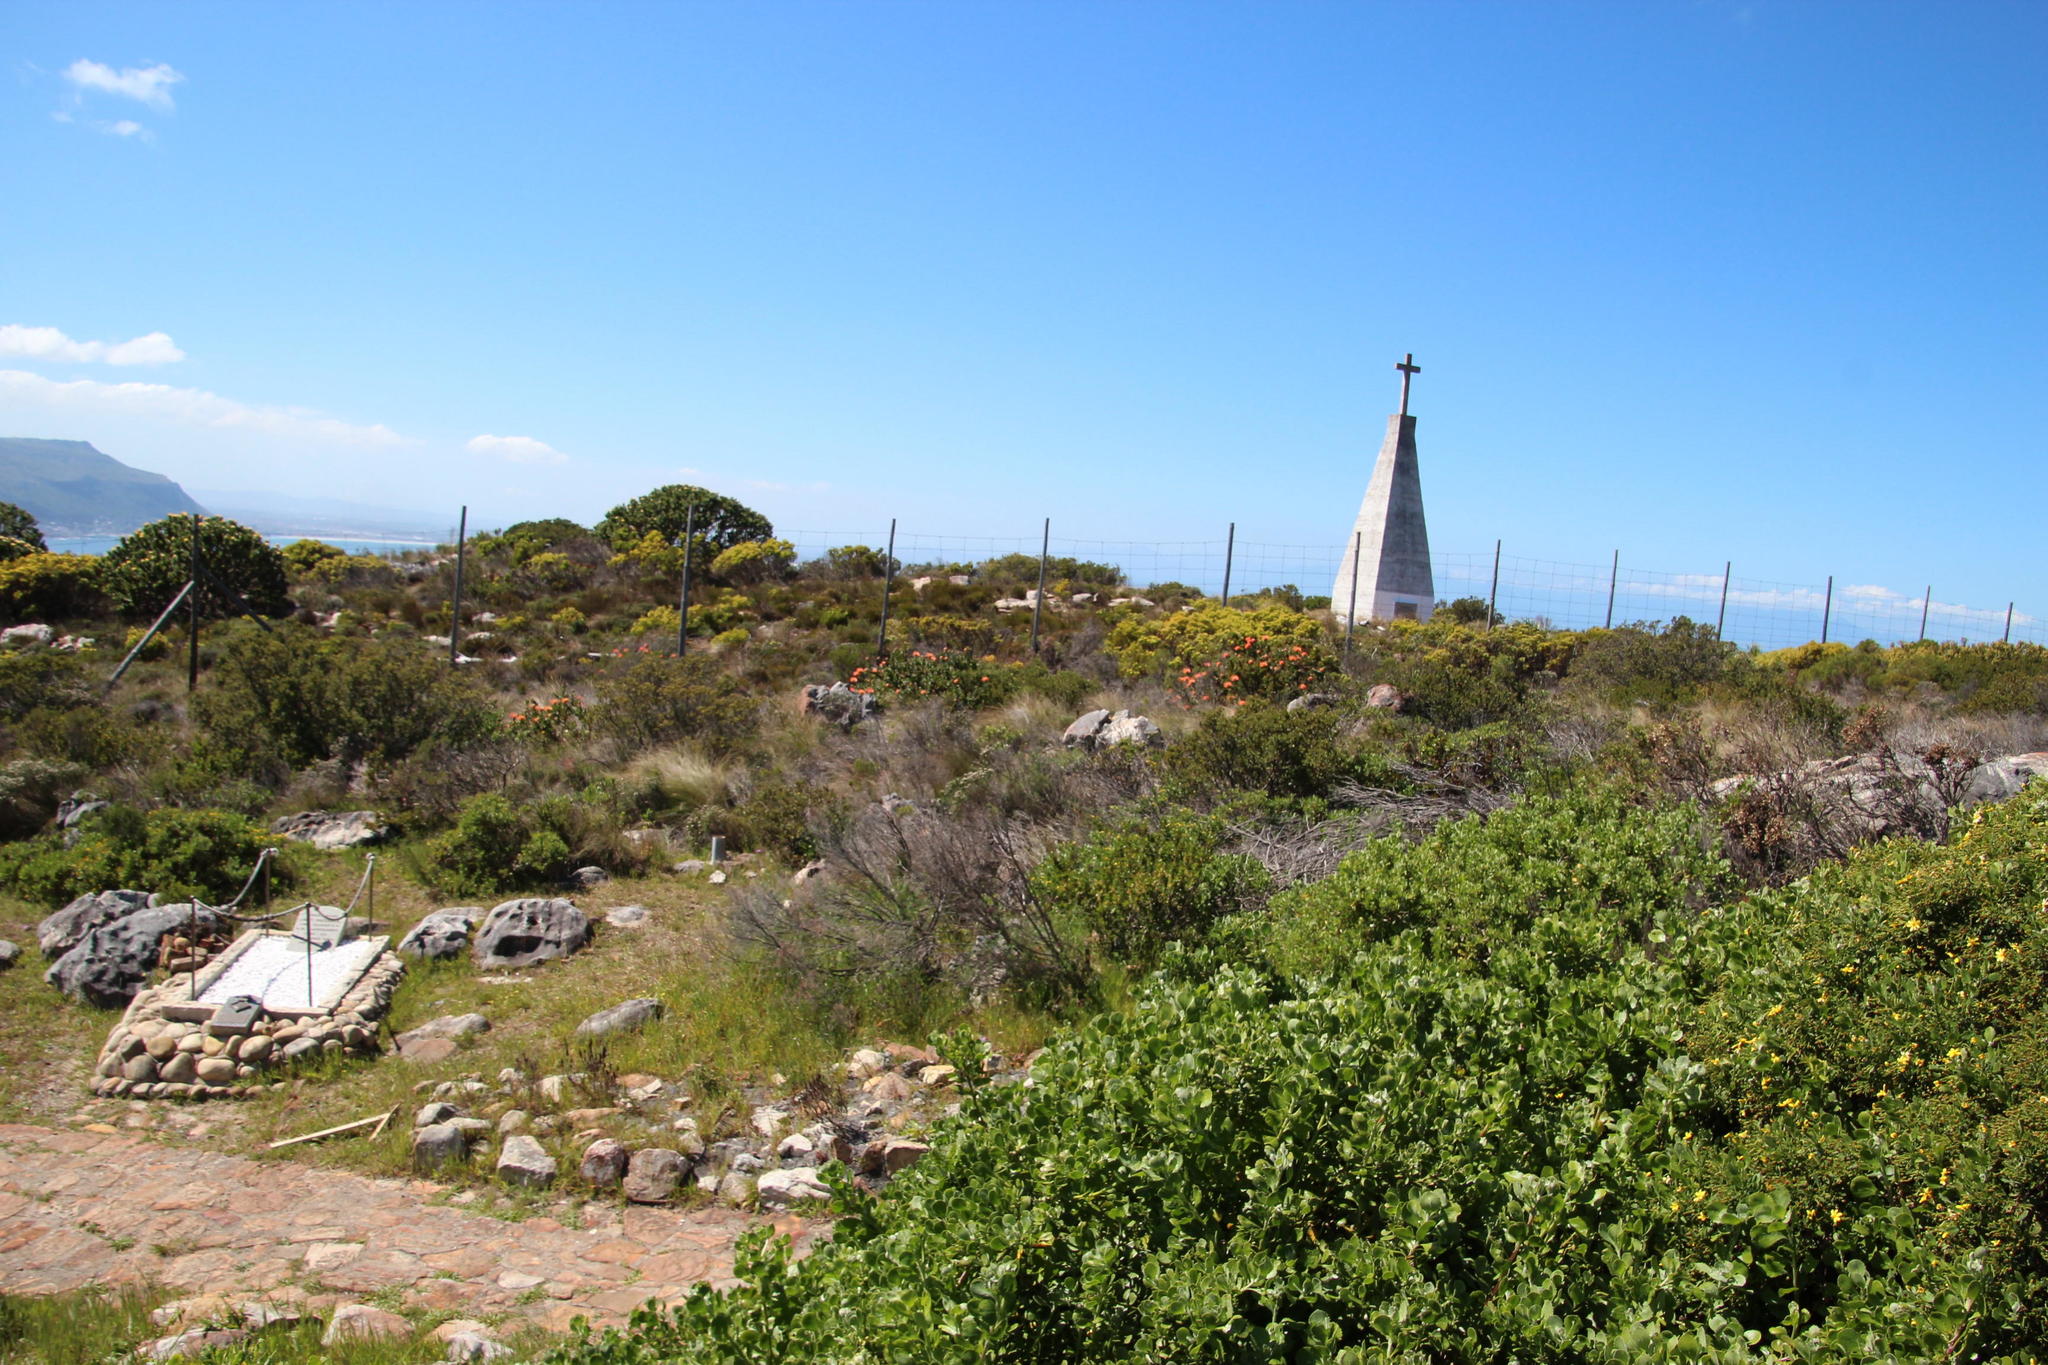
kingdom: Plantae
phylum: Tracheophyta
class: Magnoliopsida
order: Proteales
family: Proteaceae
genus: Leucospermum
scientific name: Leucospermum cordifolium
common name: Red pincushion-protea
